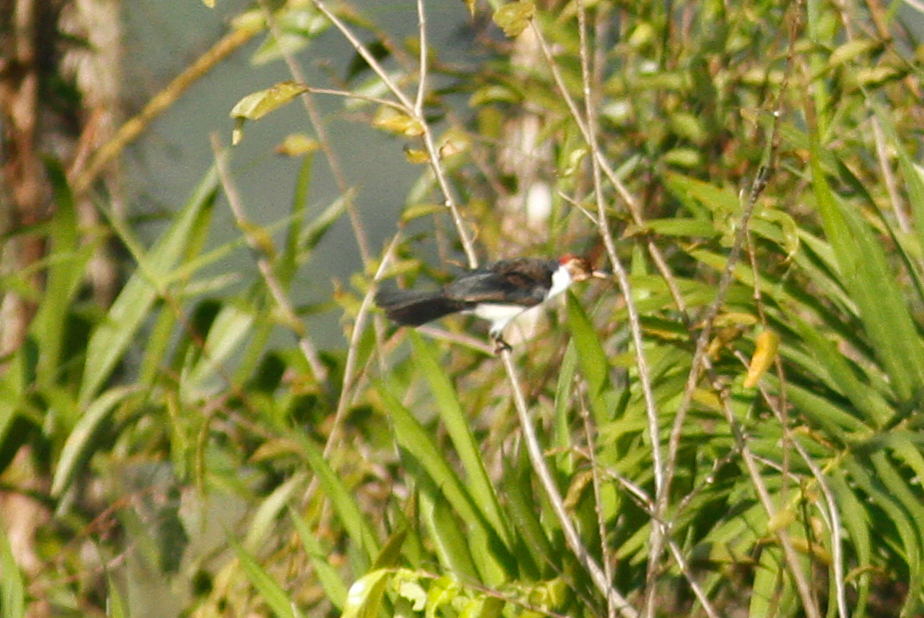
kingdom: Animalia
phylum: Chordata
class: Aves
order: Passeriformes
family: Thraupidae
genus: Paroaria
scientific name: Paroaria gularis
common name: Red-capped cardinal
